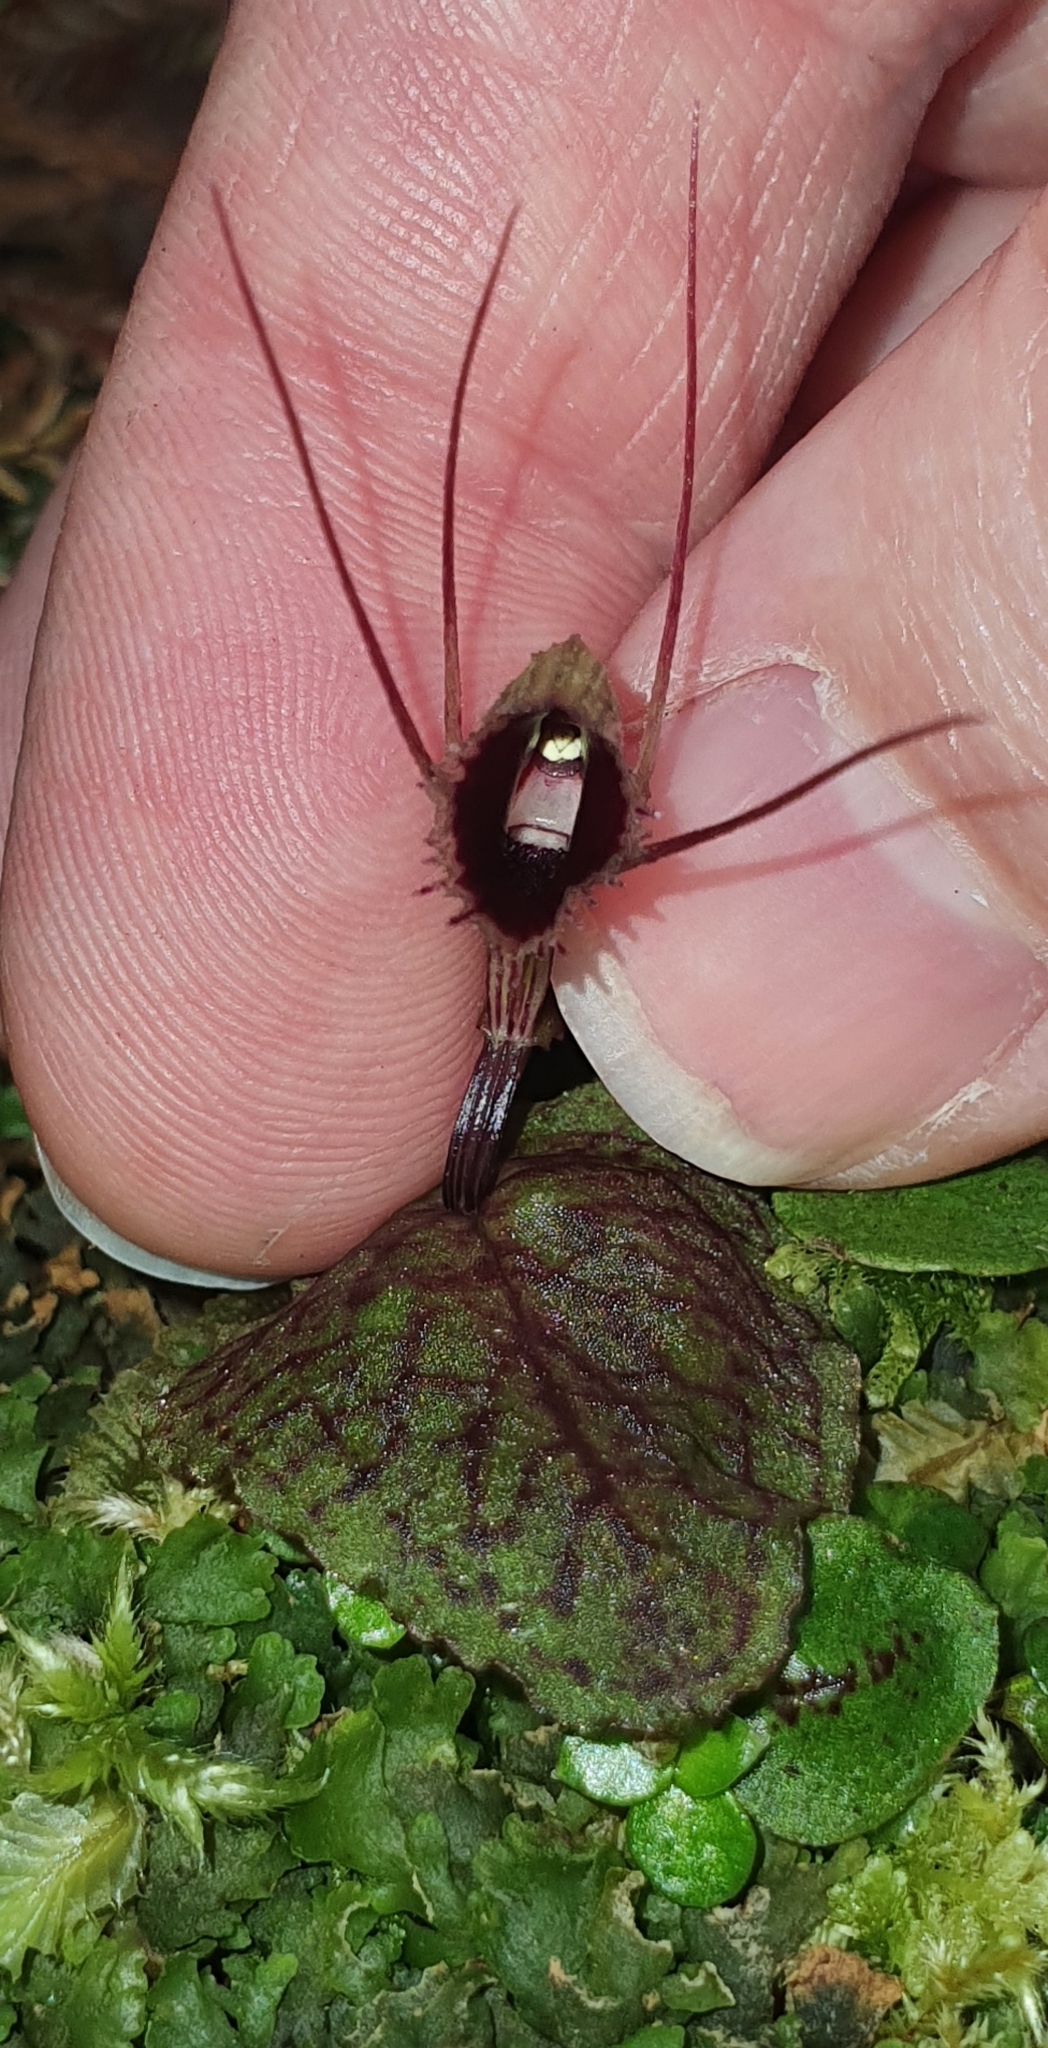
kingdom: Plantae
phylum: Tracheophyta
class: Liliopsida
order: Asparagales
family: Orchidaceae
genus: Corybas
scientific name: Corybas oblongus
